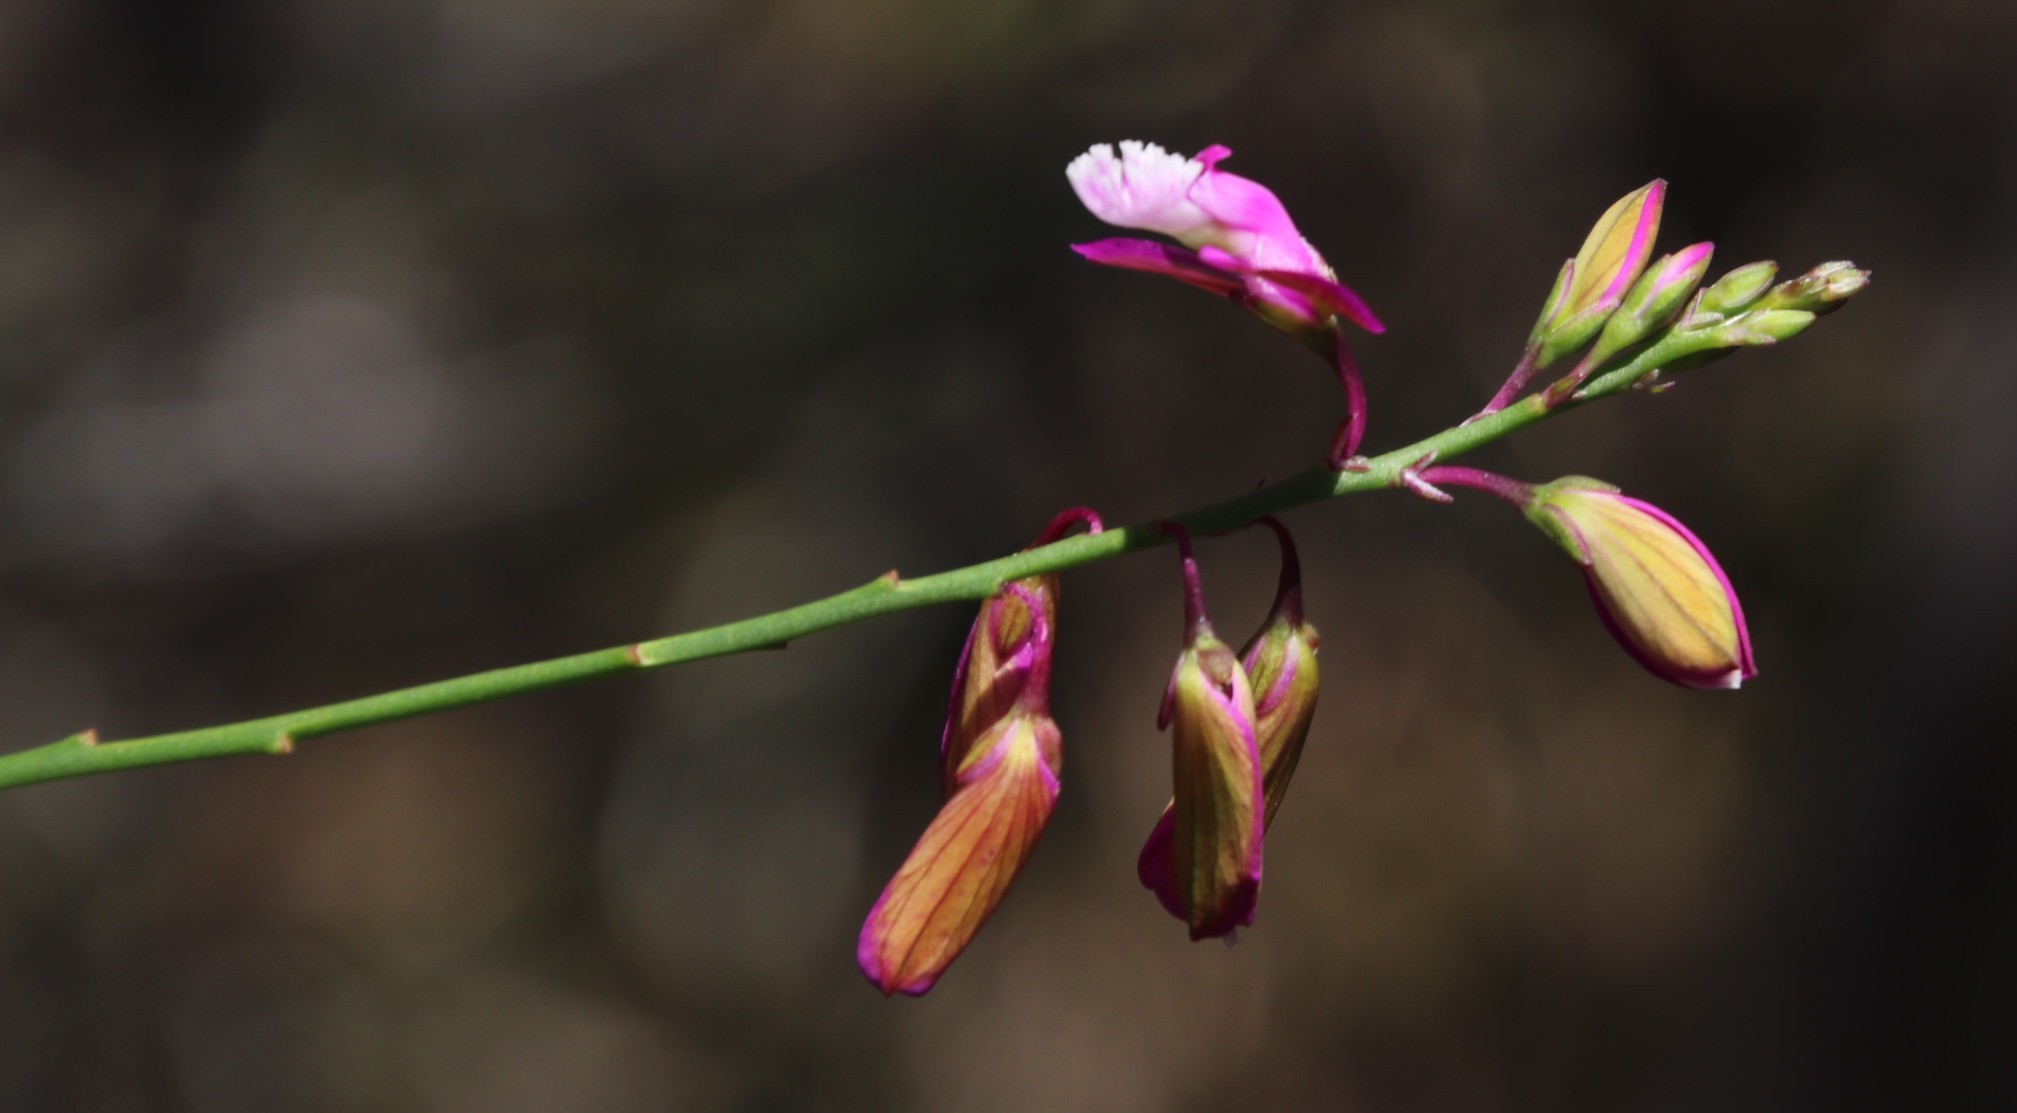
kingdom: Plantae
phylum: Tracheophyta
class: Magnoliopsida
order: Fabales
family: Polygalaceae
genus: Polygala
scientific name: Polygala garcini
